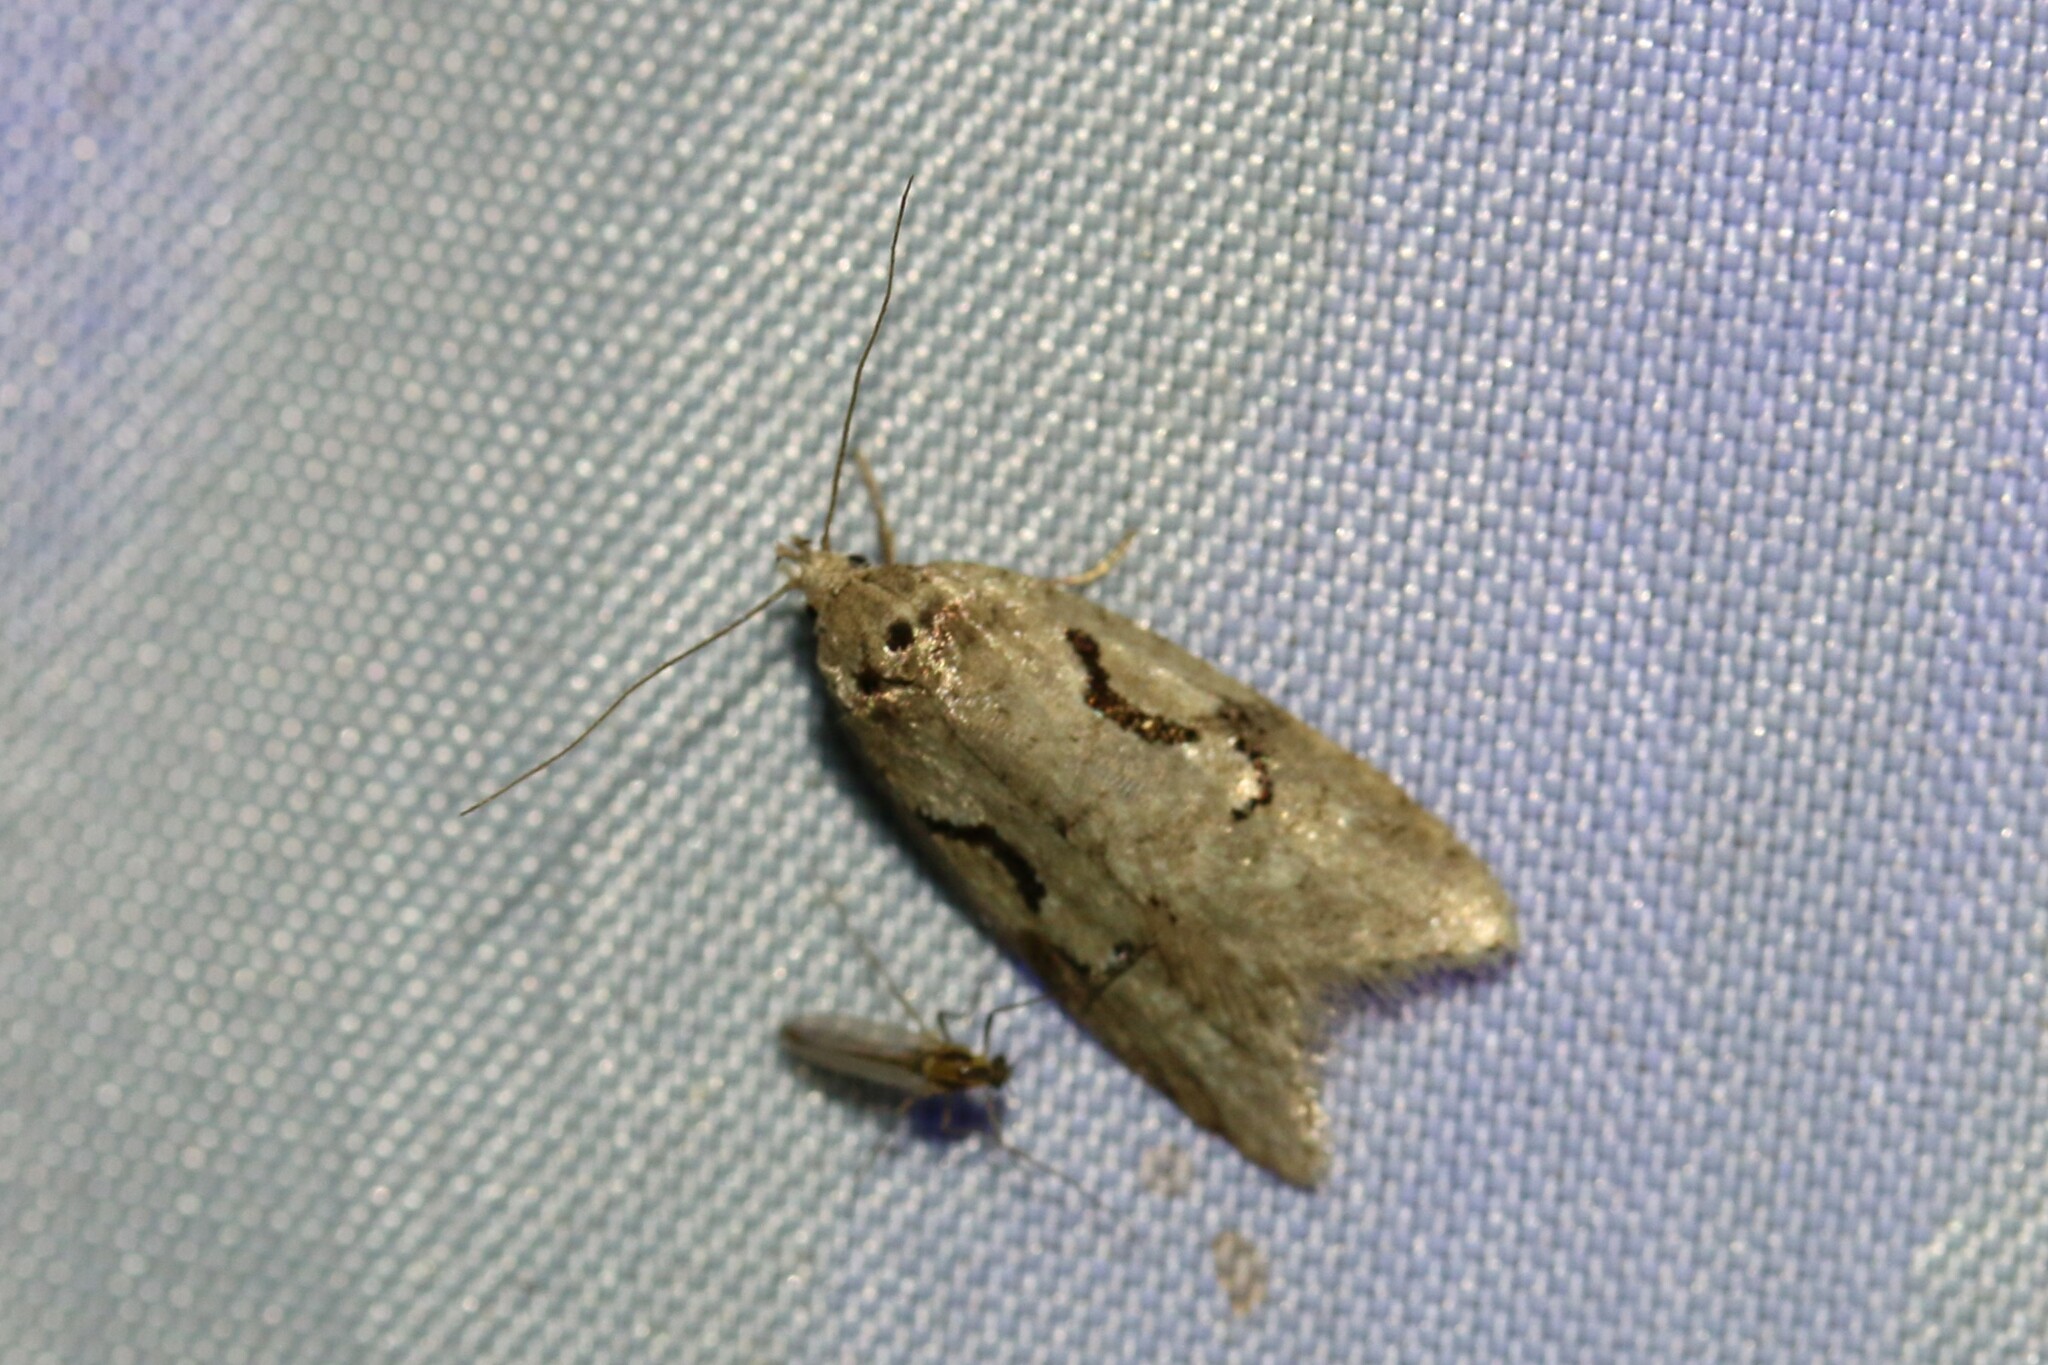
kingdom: Animalia
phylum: Arthropoda
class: Insecta
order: Lepidoptera
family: Depressariidae
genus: Semioscopis
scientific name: Semioscopis steinkellneriana
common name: Dawn flat-body
